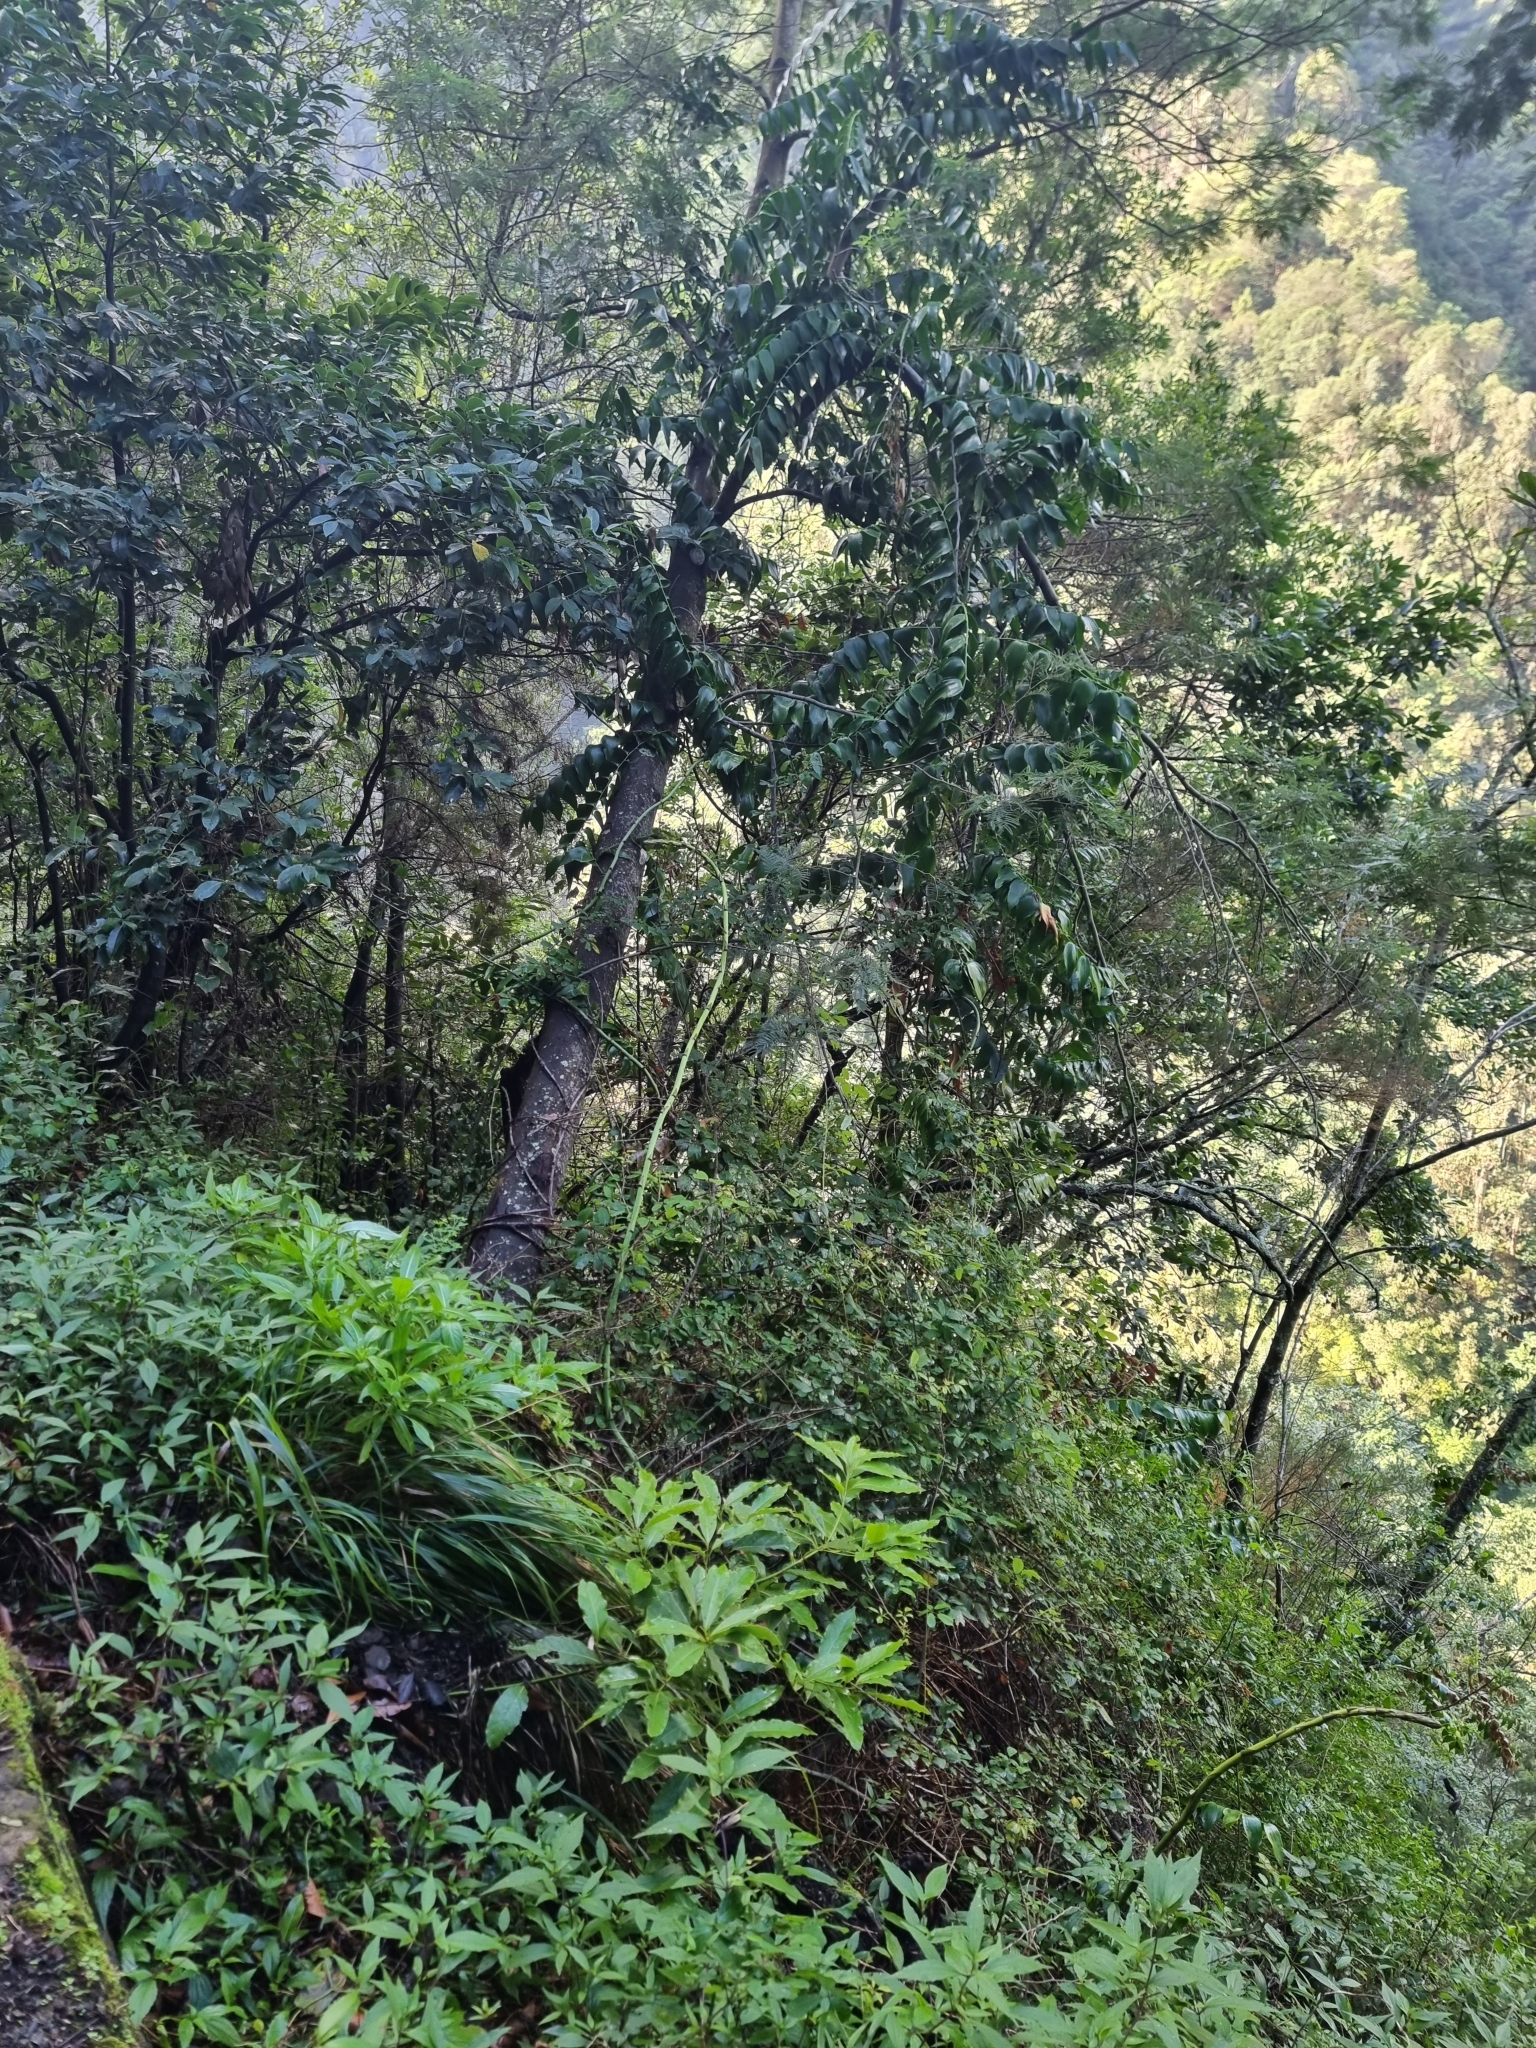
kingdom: Plantae
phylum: Tracheophyta
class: Liliopsida
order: Asparagales
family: Asparagaceae
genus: Semele
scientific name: Semele androgyna
